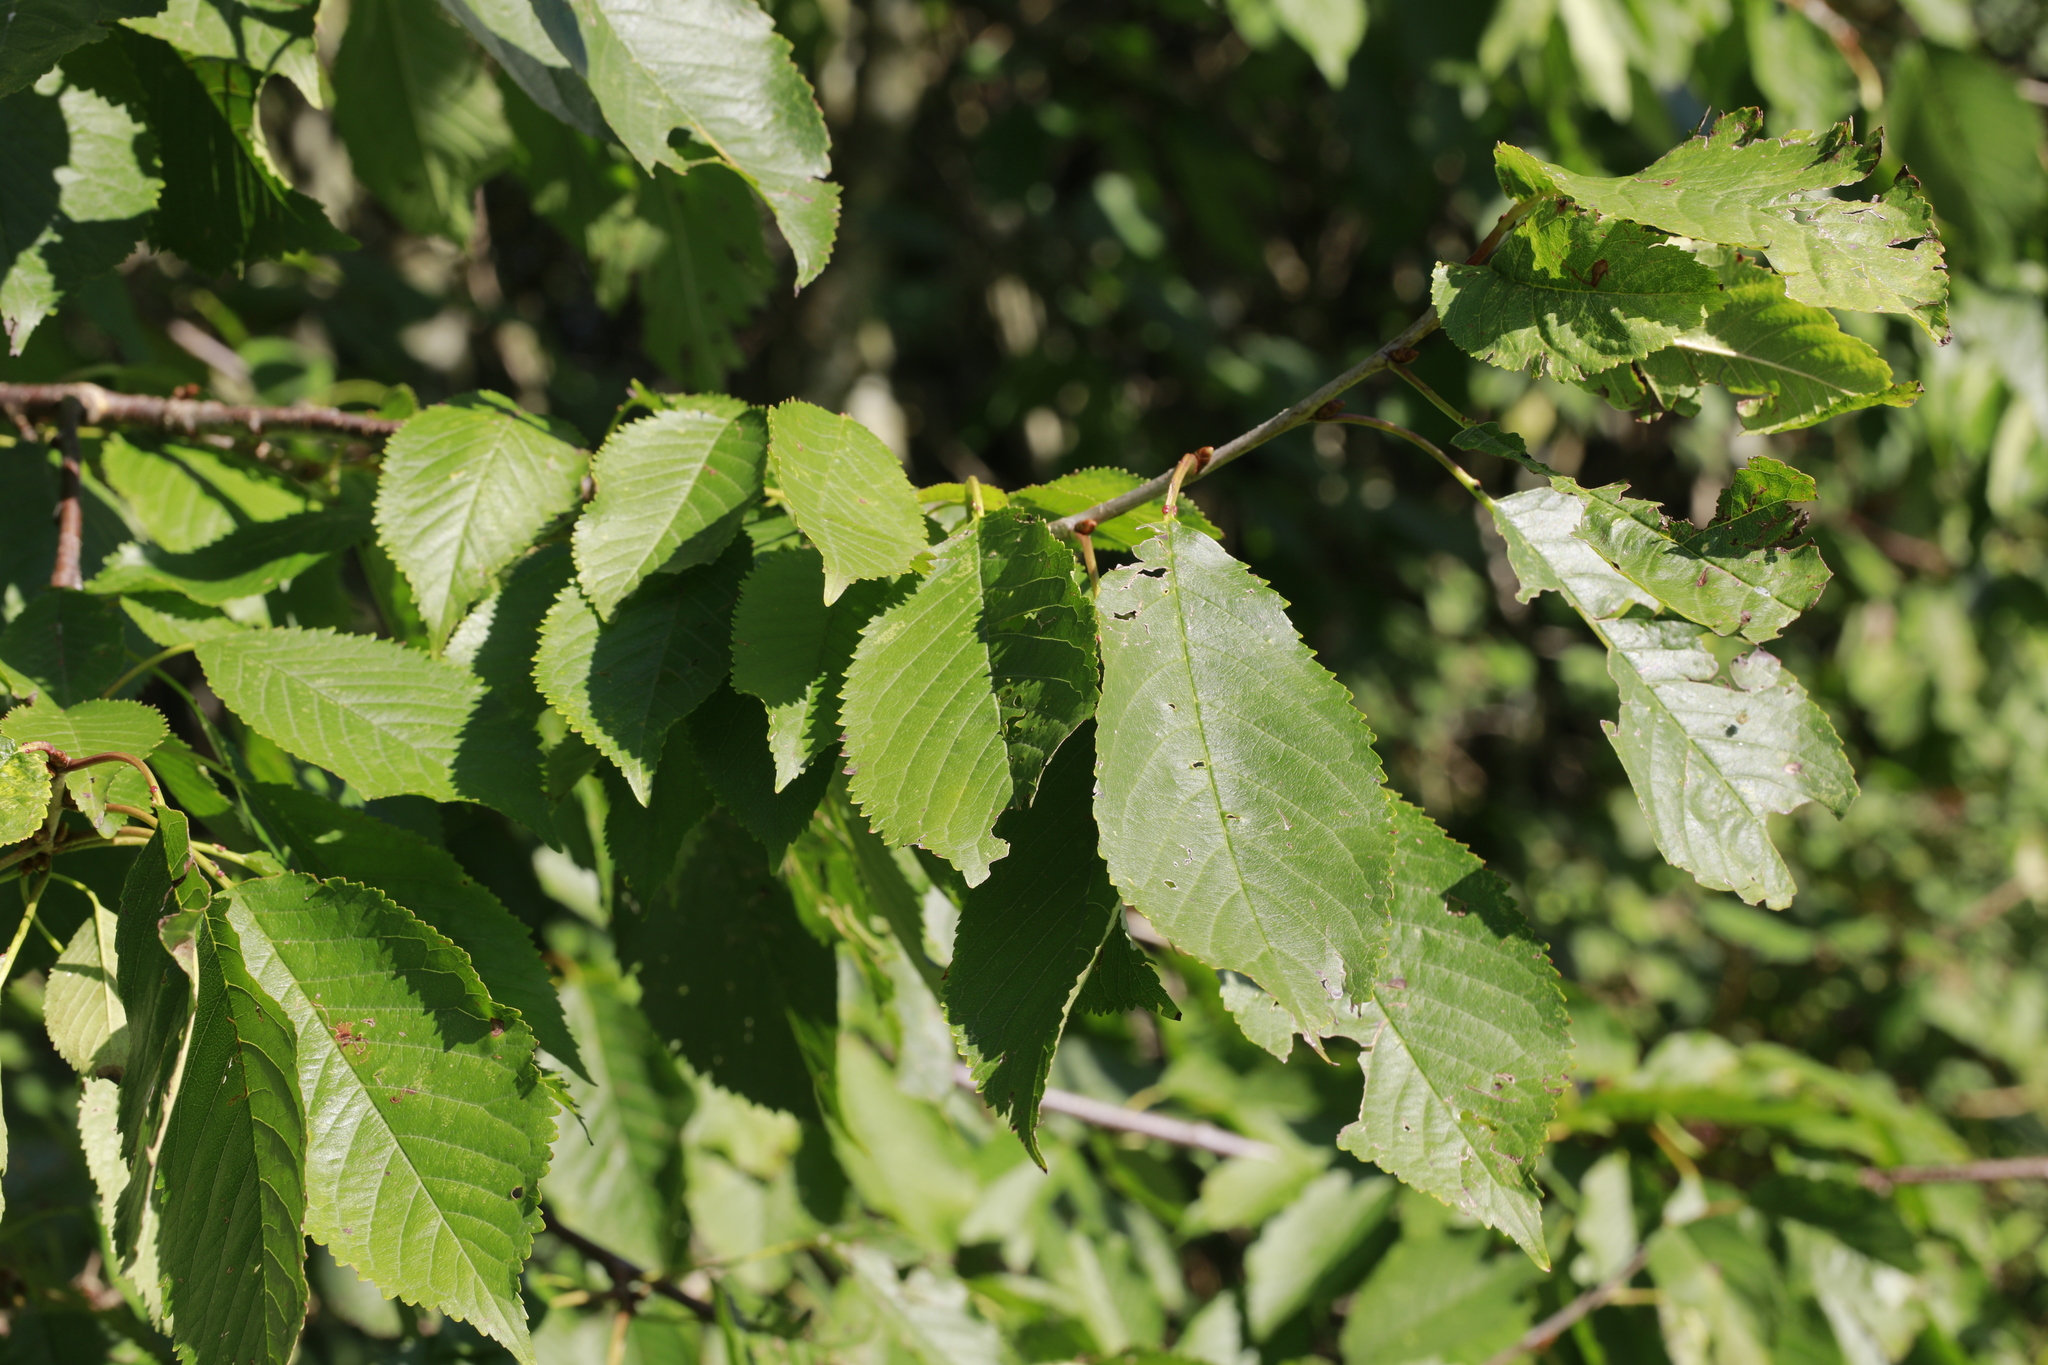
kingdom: Plantae
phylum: Tracheophyta
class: Magnoliopsida
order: Rosales
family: Rosaceae
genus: Prunus
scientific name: Prunus avium
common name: Sweet cherry
